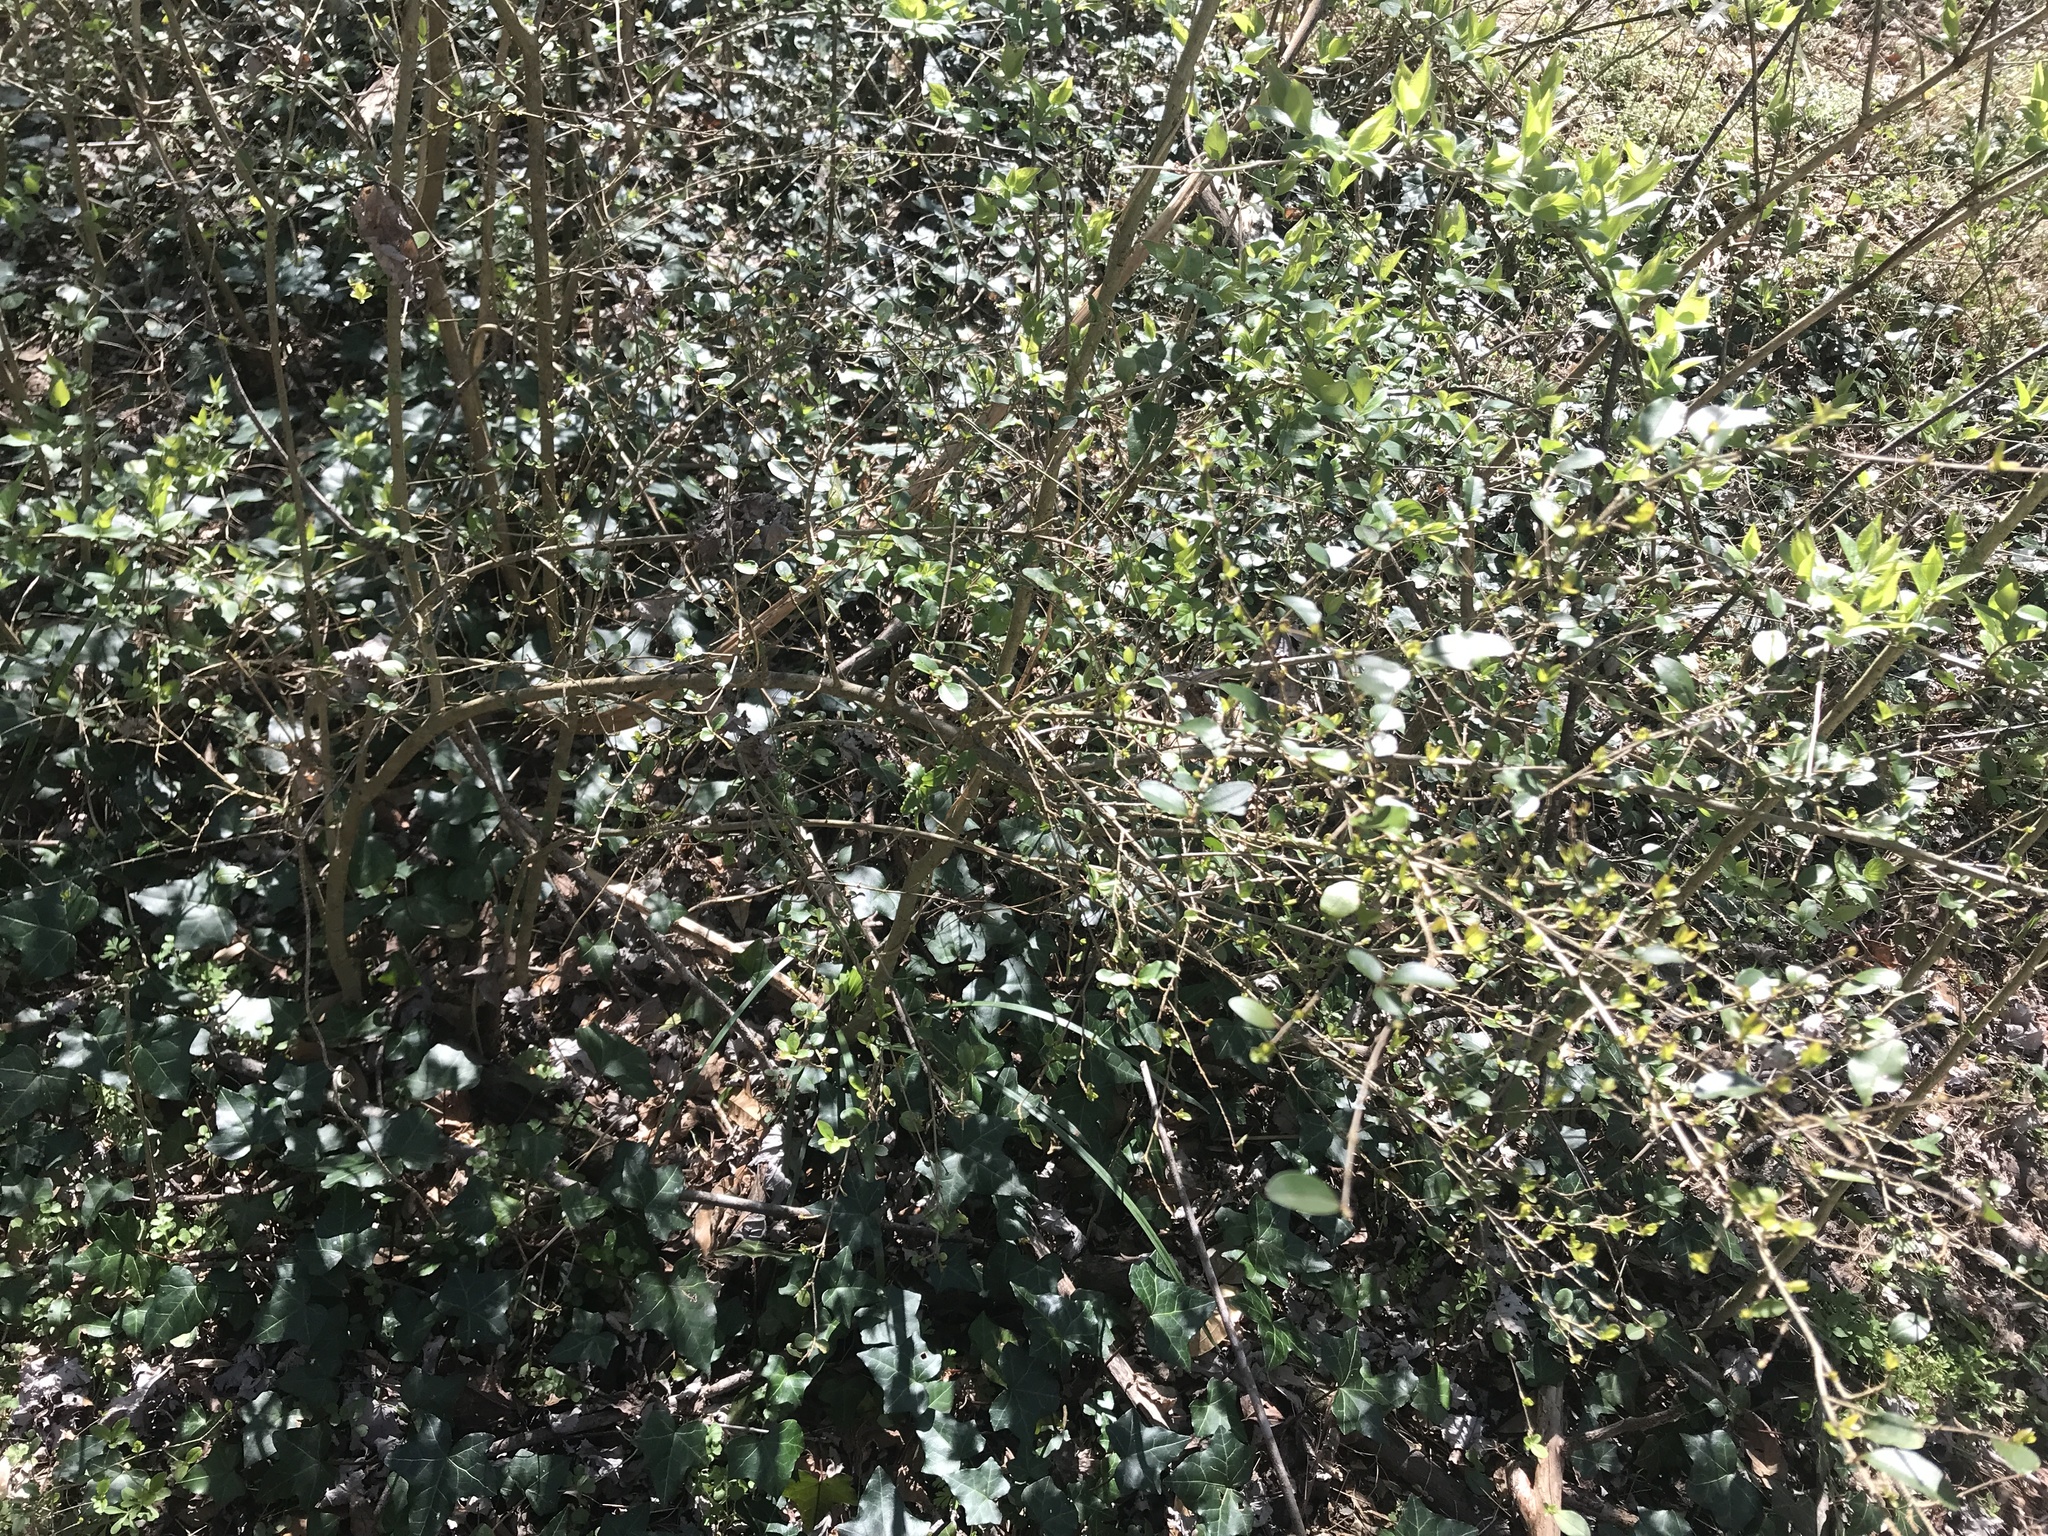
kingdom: Plantae
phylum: Tracheophyta
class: Magnoliopsida
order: Lamiales
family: Oleaceae
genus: Ligustrum
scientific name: Ligustrum sinense
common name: Chinese privet
